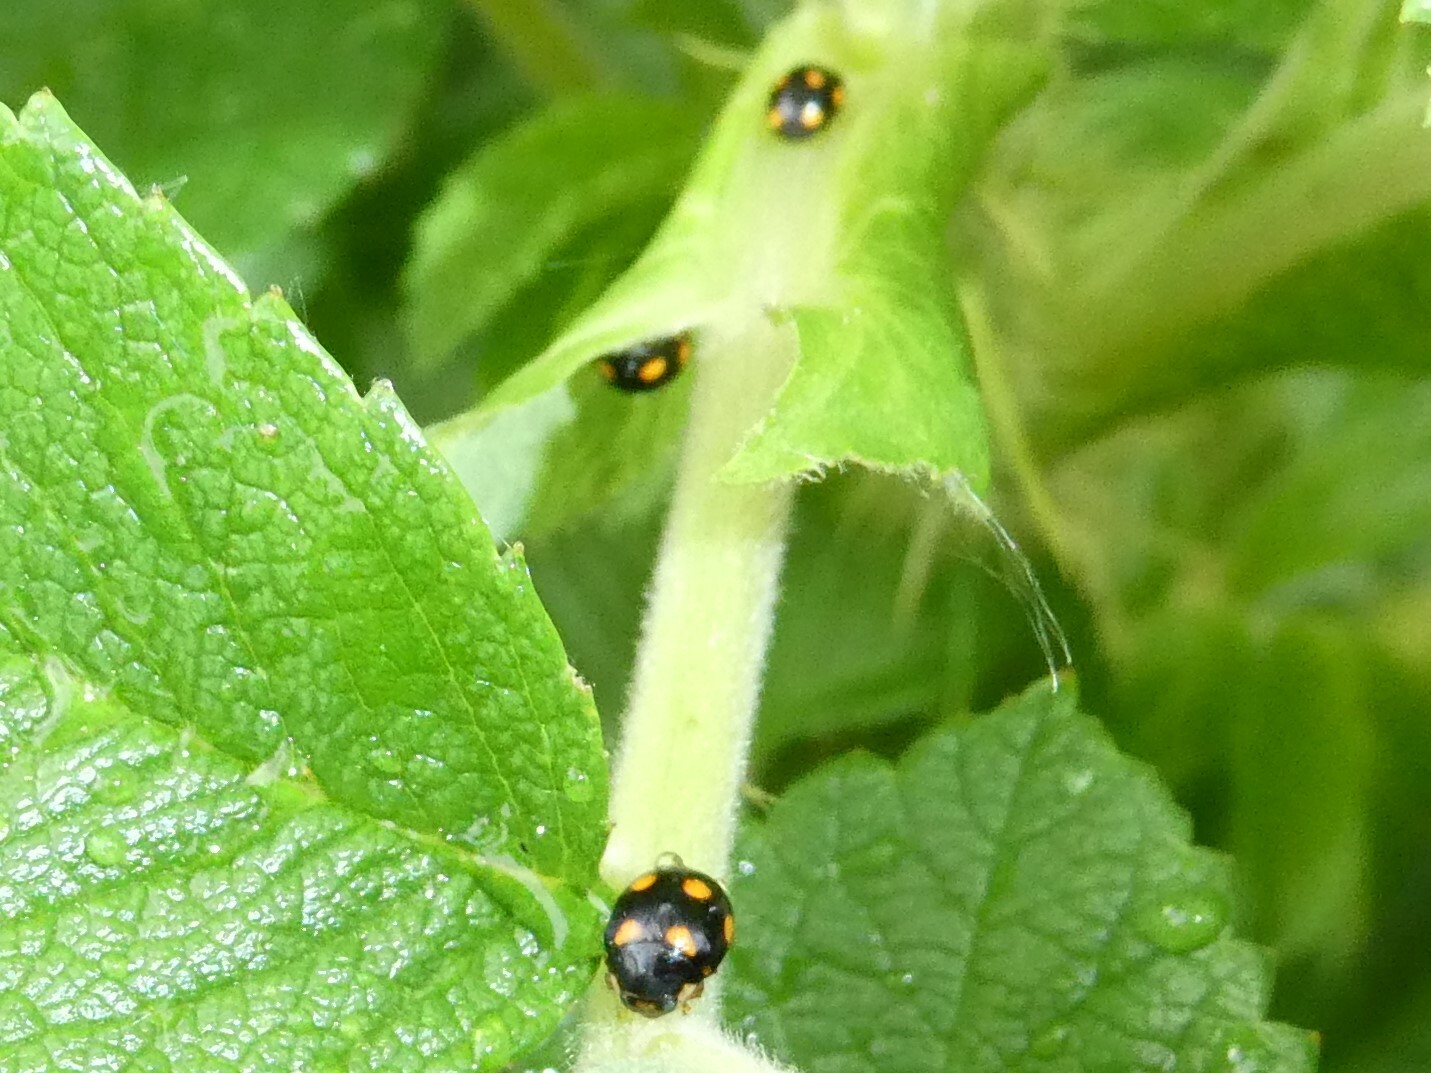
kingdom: Animalia
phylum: Arthropoda
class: Insecta
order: Coleoptera
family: Coccinellidae
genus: Brachiacantha
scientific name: Brachiacantha ursina
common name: Ursine spurleg lady beetle
